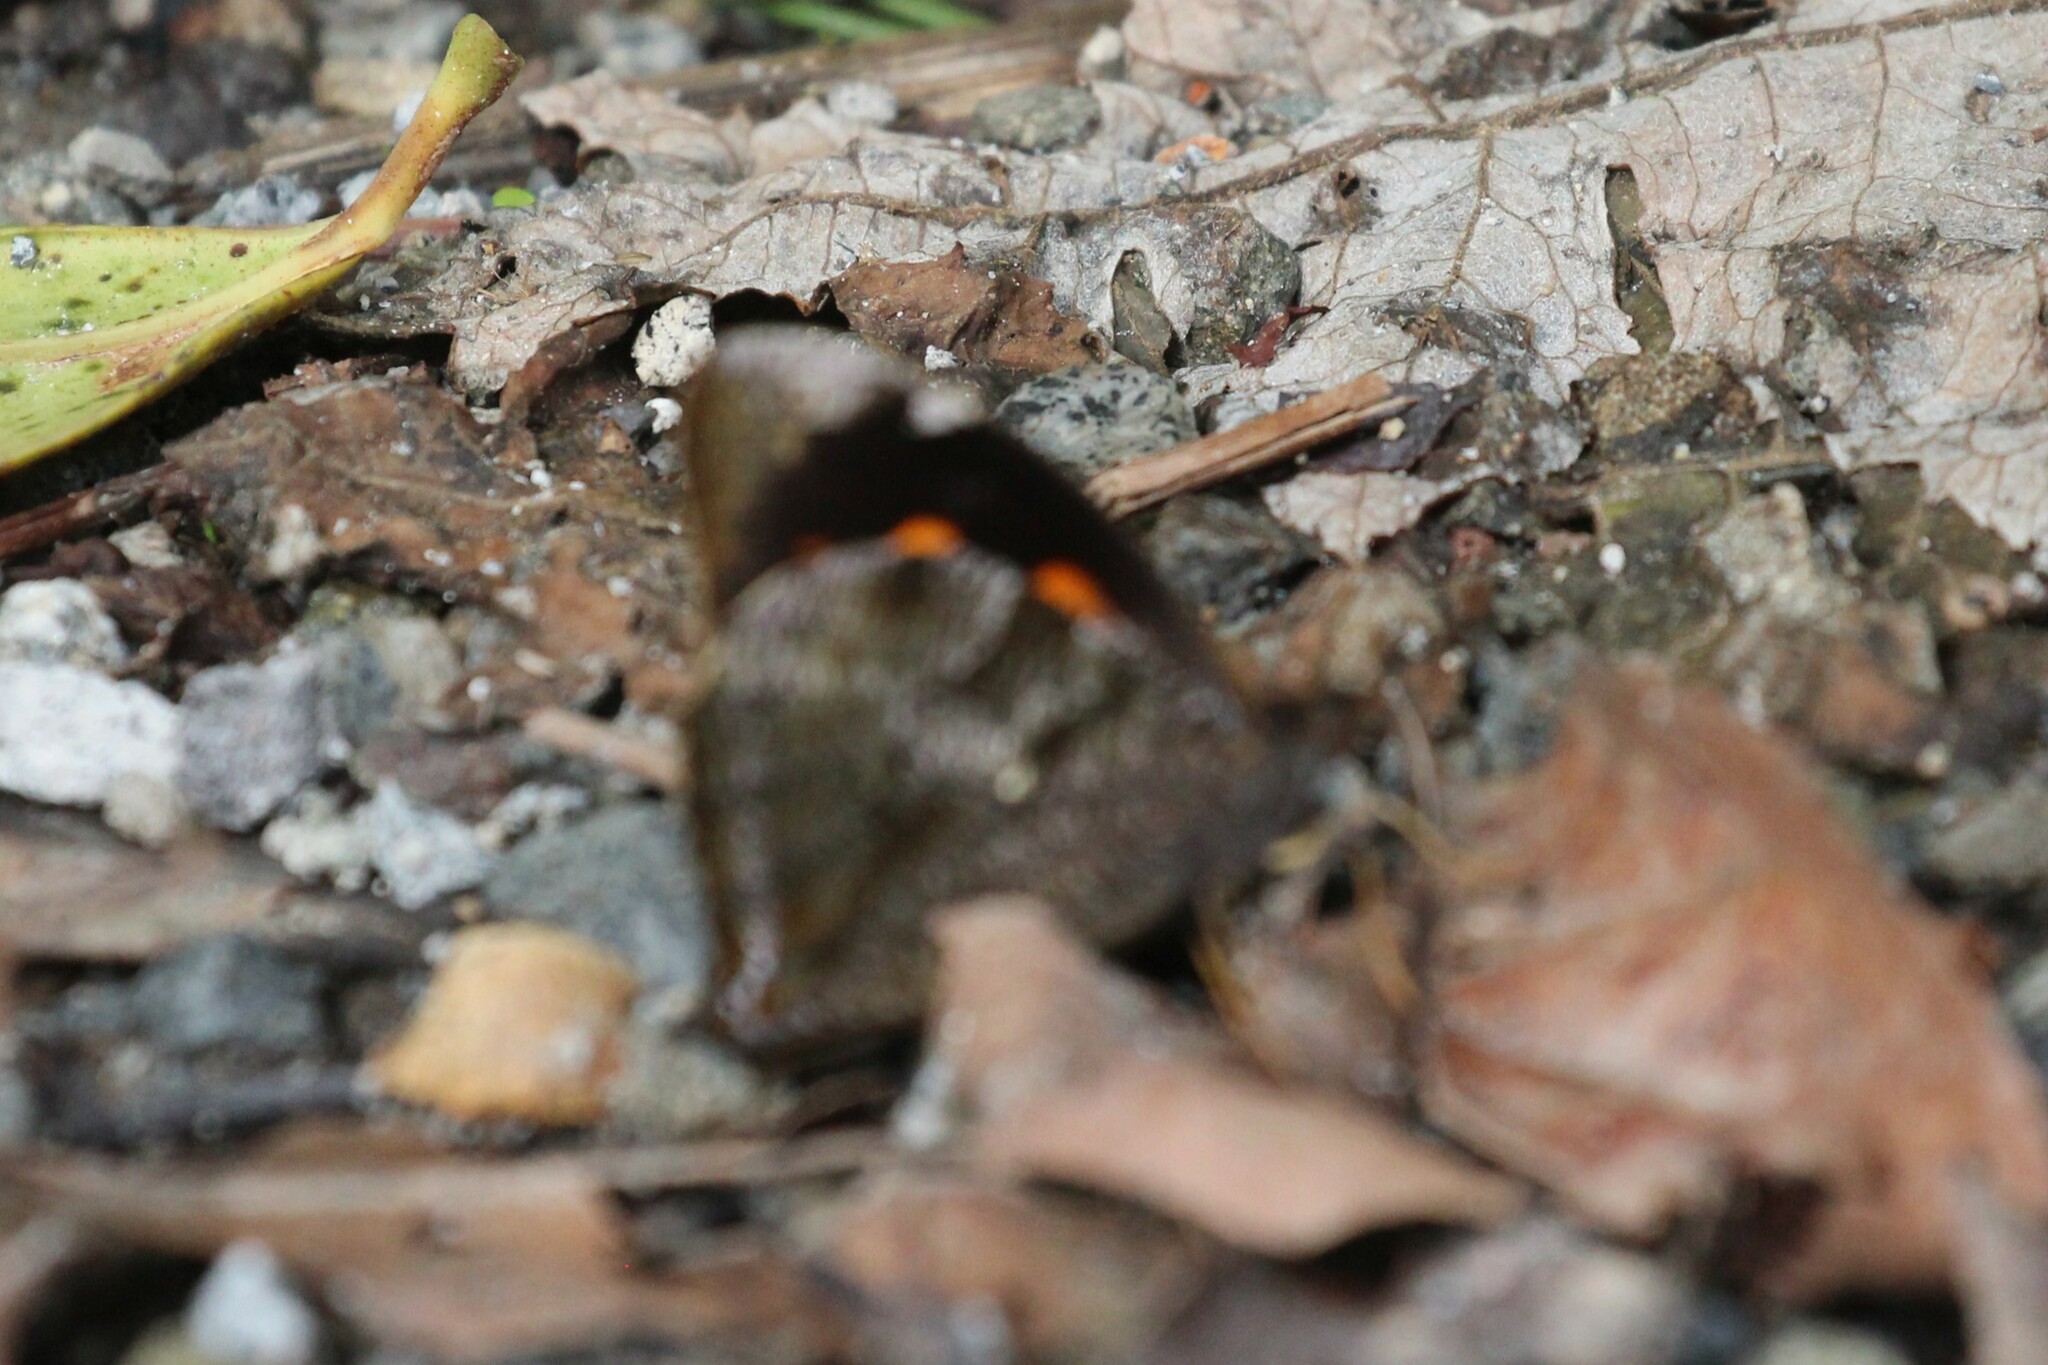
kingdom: Animalia
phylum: Arthropoda
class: Insecta
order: Lepidoptera
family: Nymphalidae
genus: Corades
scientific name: Corades medeba
